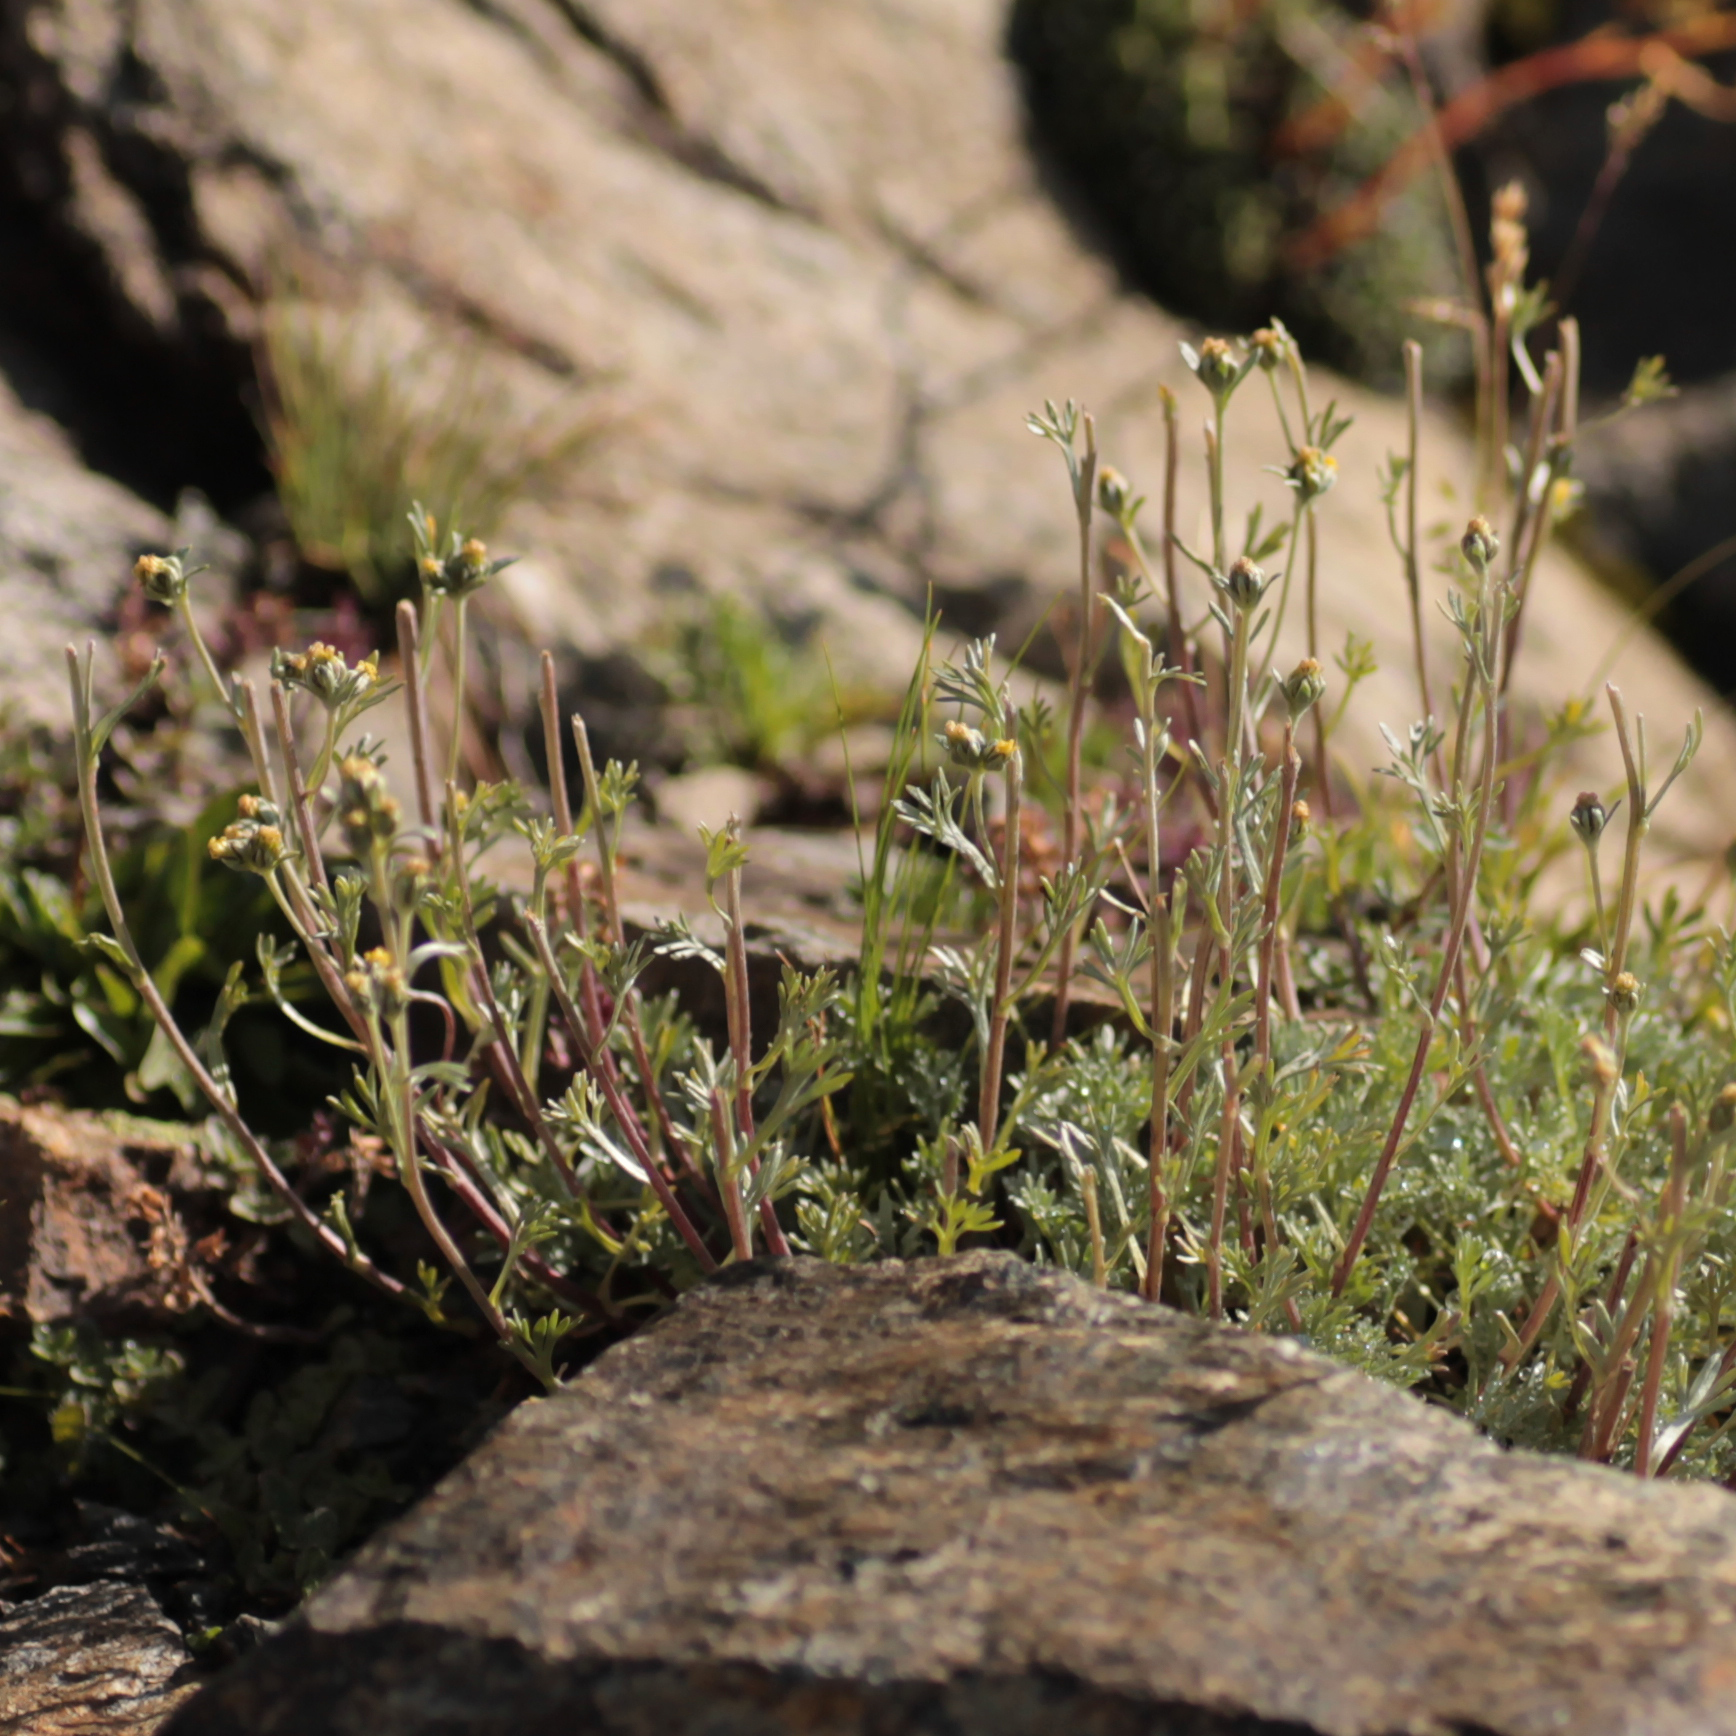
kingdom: Plantae
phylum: Tracheophyta
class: Magnoliopsida
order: Asterales
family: Asteraceae
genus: Artemisia
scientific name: Artemisia umbelliformis
